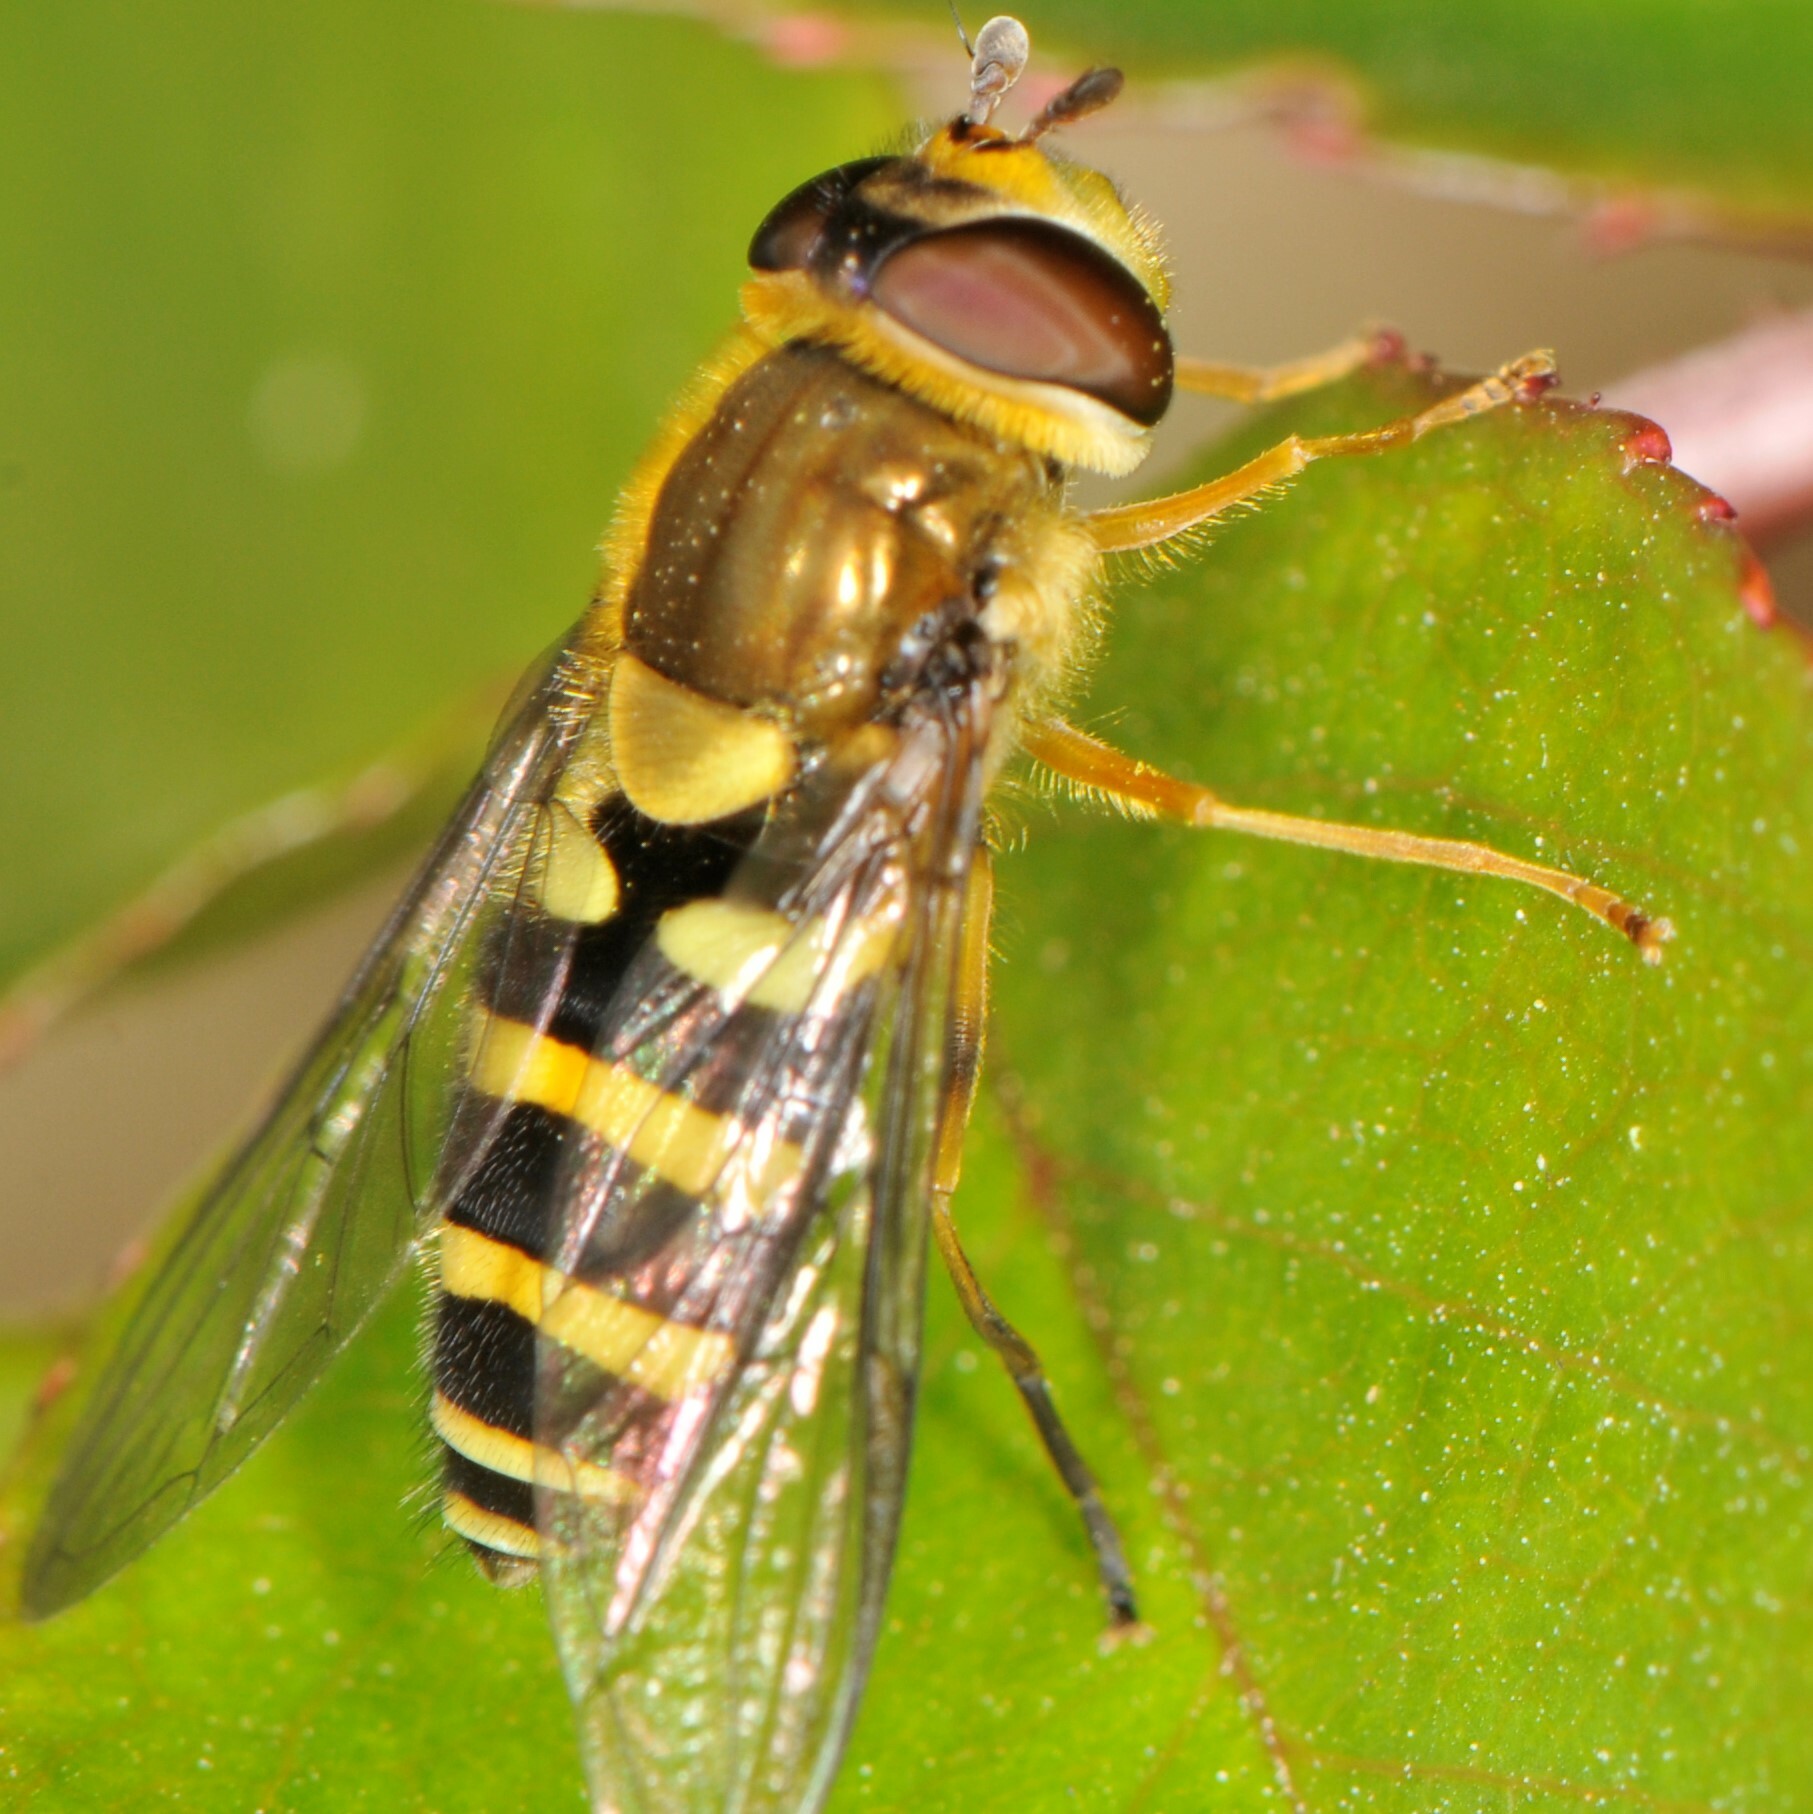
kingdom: Animalia
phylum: Arthropoda
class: Insecta
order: Diptera
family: Syrphidae
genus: Syrphus
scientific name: Syrphus opinator
